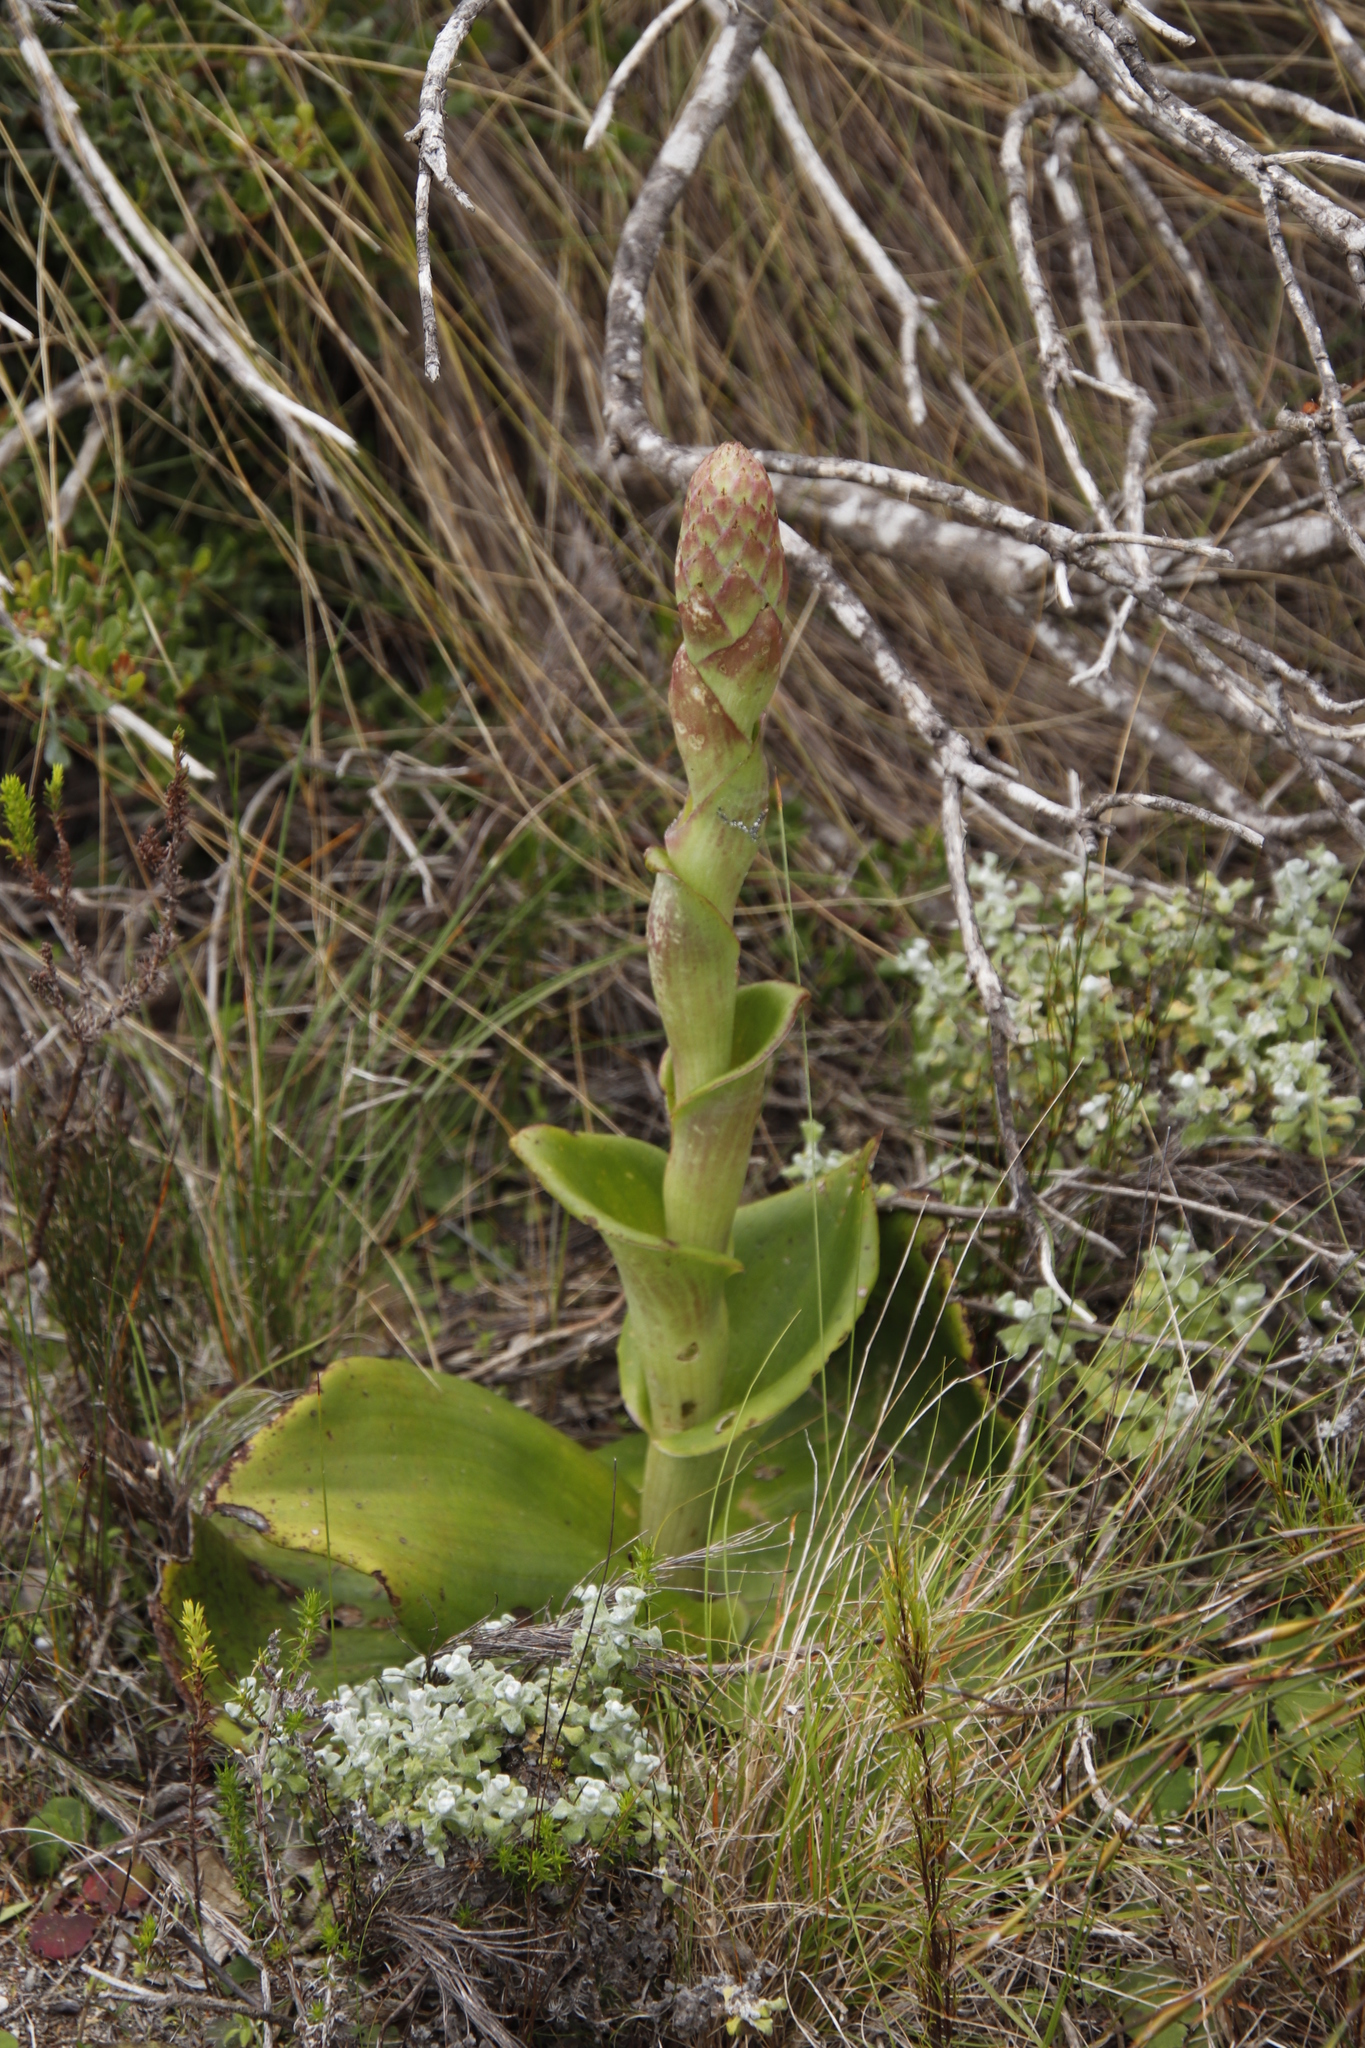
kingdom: Plantae
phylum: Tracheophyta
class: Liliopsida
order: Asparagales
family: Orchidaceae
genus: Satyrium
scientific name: Satyrium carneum
